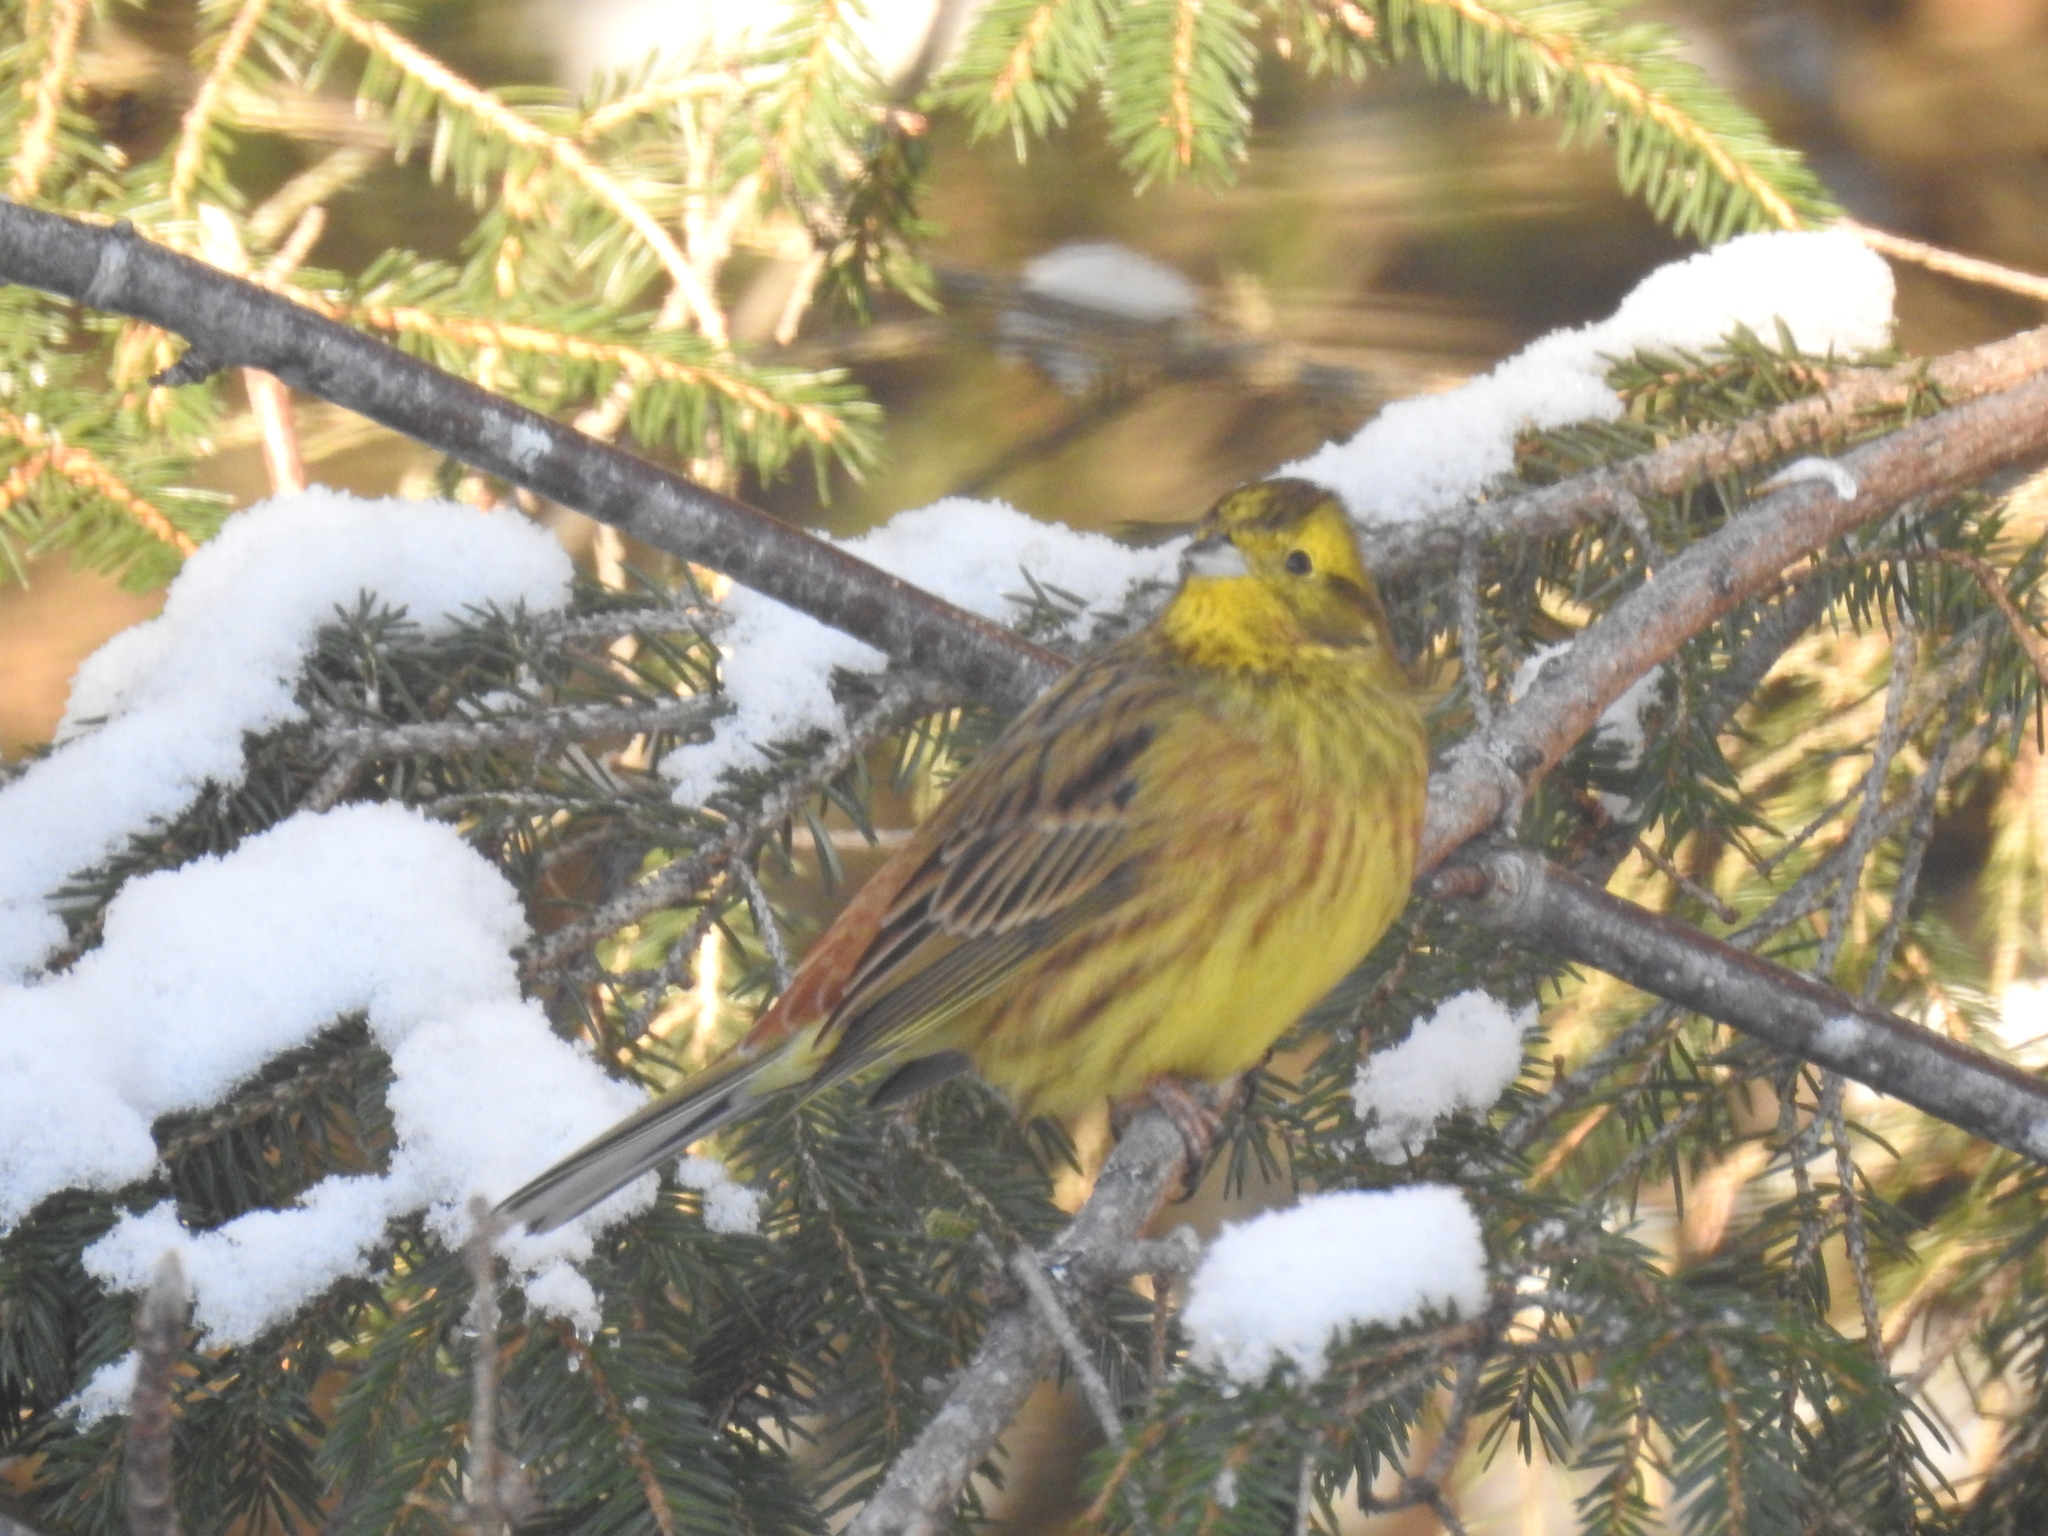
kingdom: Animalia
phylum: Chordata
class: Aves
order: Passeriformes
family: Emberizidae
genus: Emberiza
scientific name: Emberiza citrinella
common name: Yellowhammer
